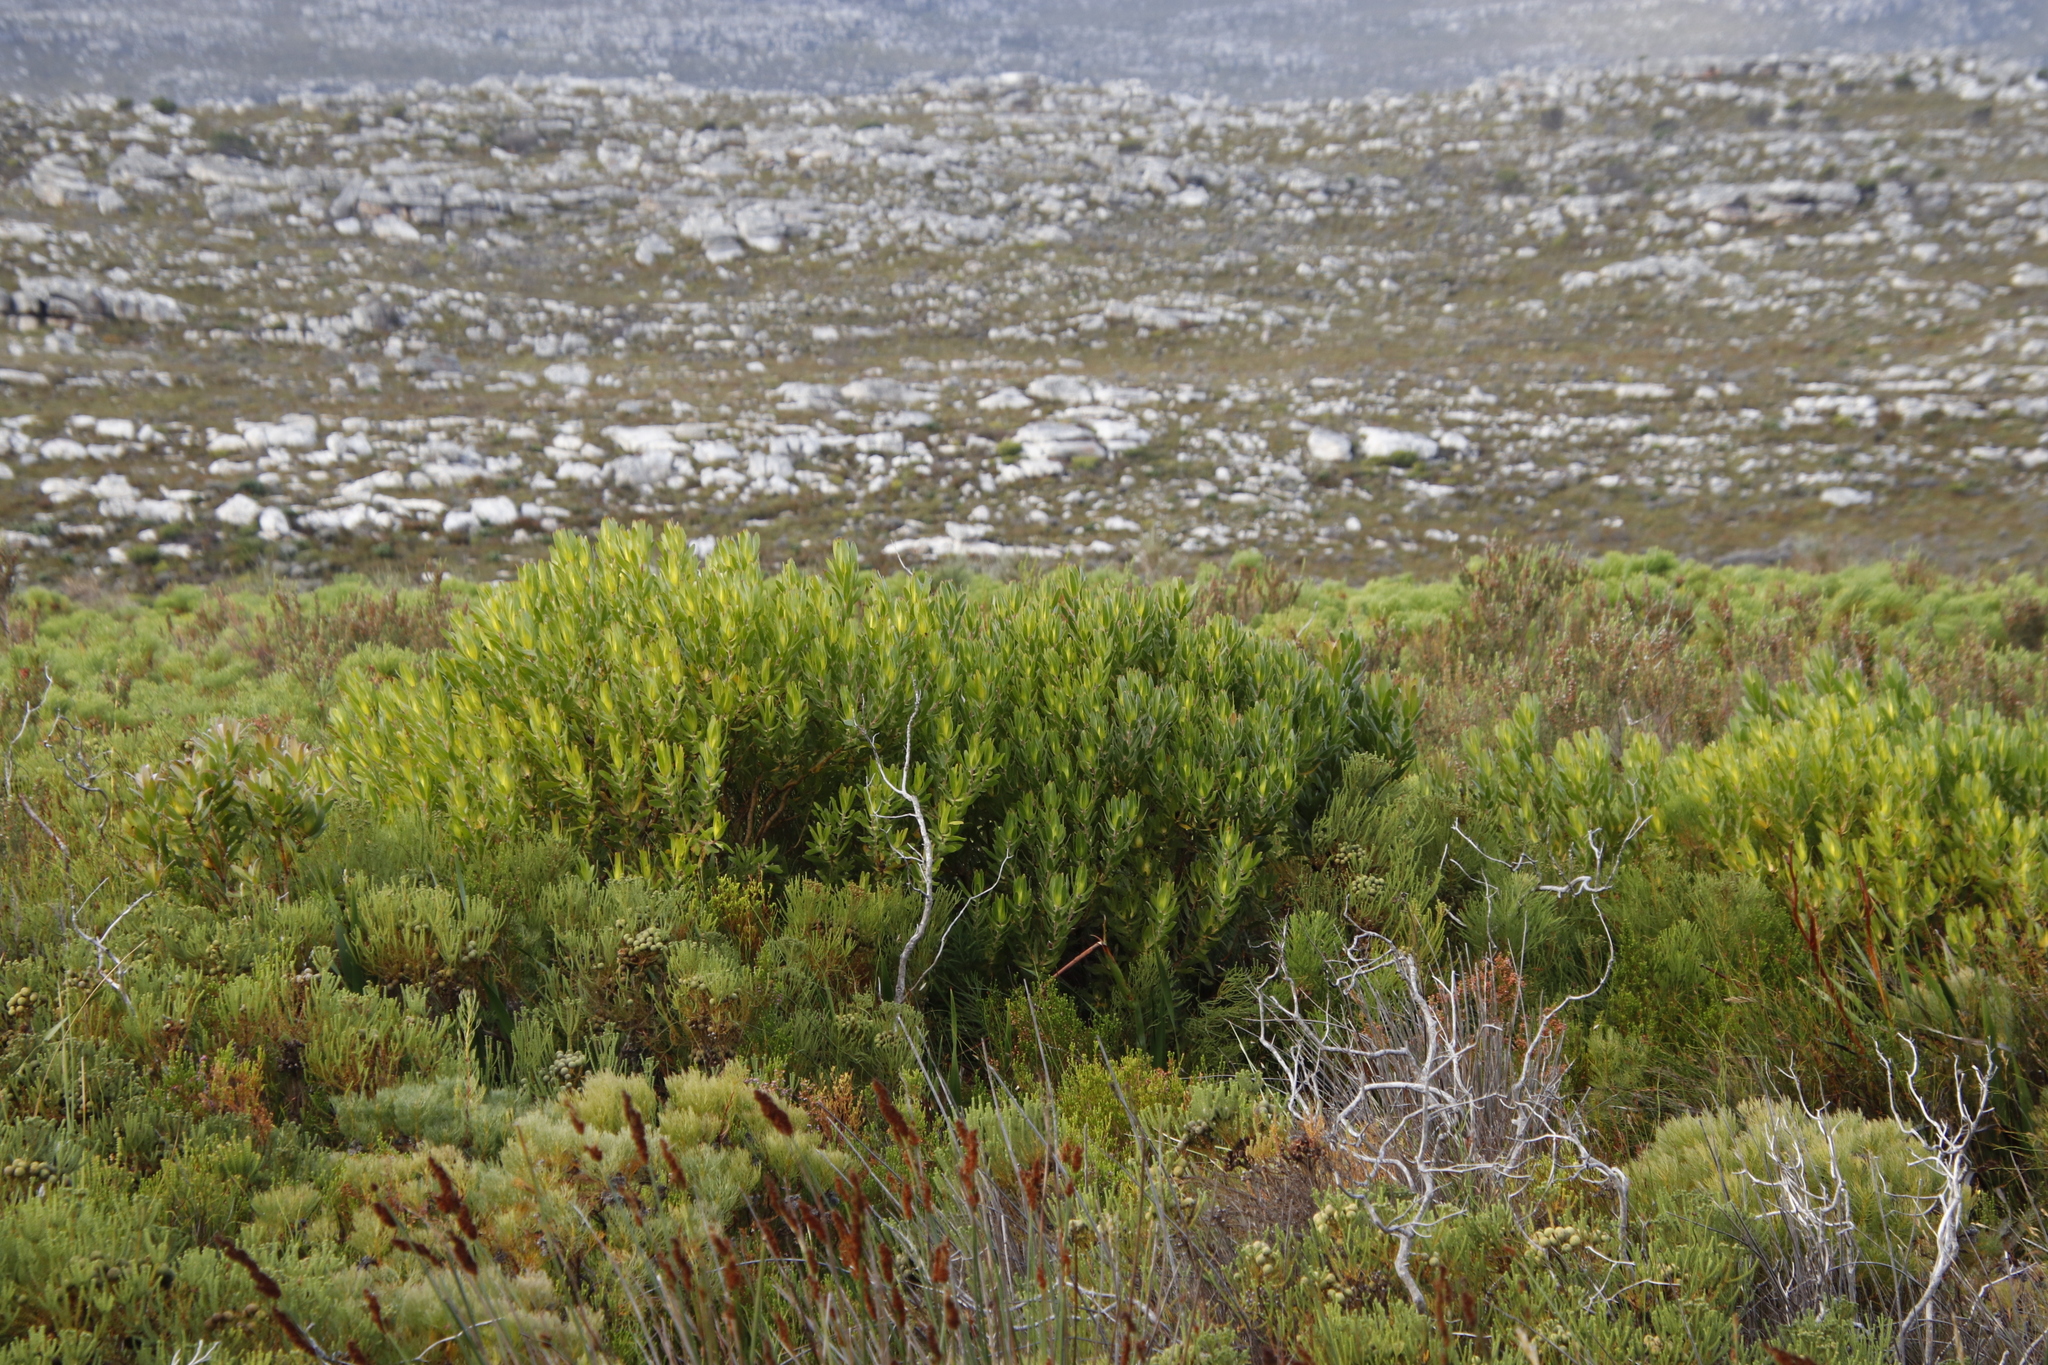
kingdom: Plantae
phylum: Tracheophyta
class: Magnoliopsida
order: Proteales
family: Proteaceae
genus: Leucadendron
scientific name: Leucadendron laureolum
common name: Golden sunshinebush
